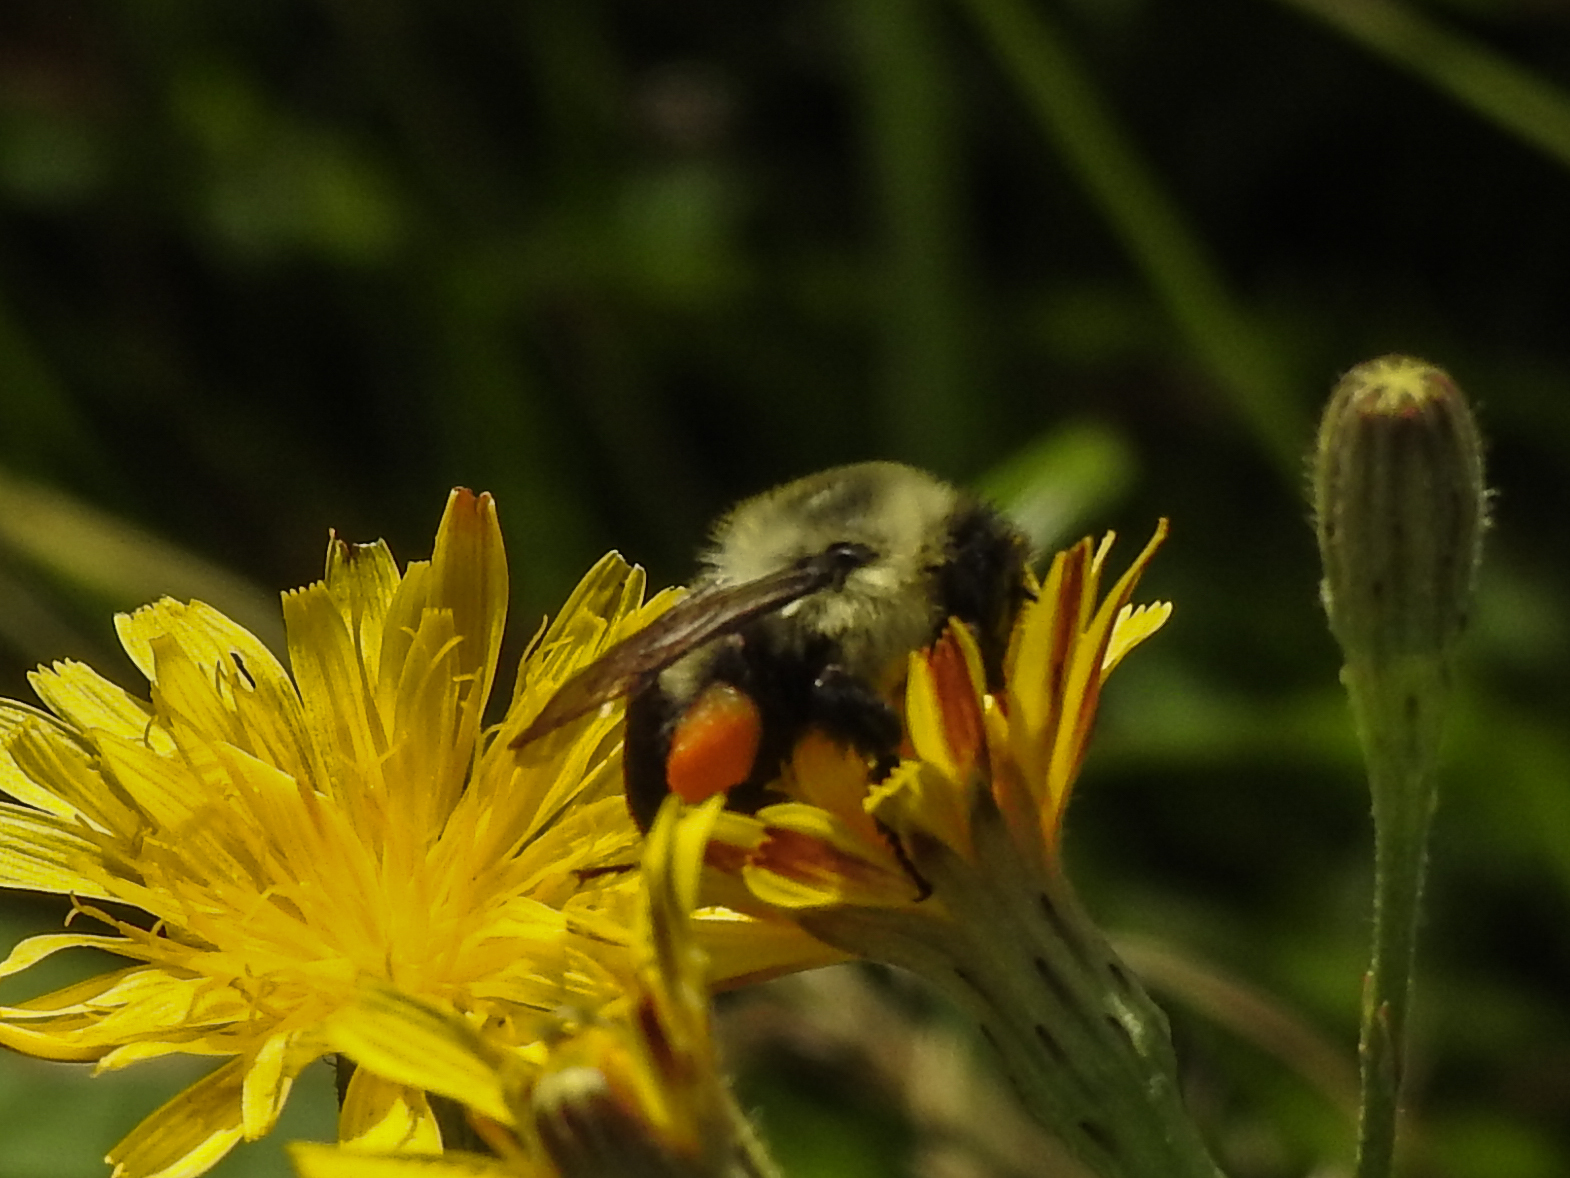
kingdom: Animalia
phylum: Arthropoda
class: Insecta
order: Hymenoptera
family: Apidae
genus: Bombus
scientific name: Bombus impatiens
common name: Common eastern bumble bee
